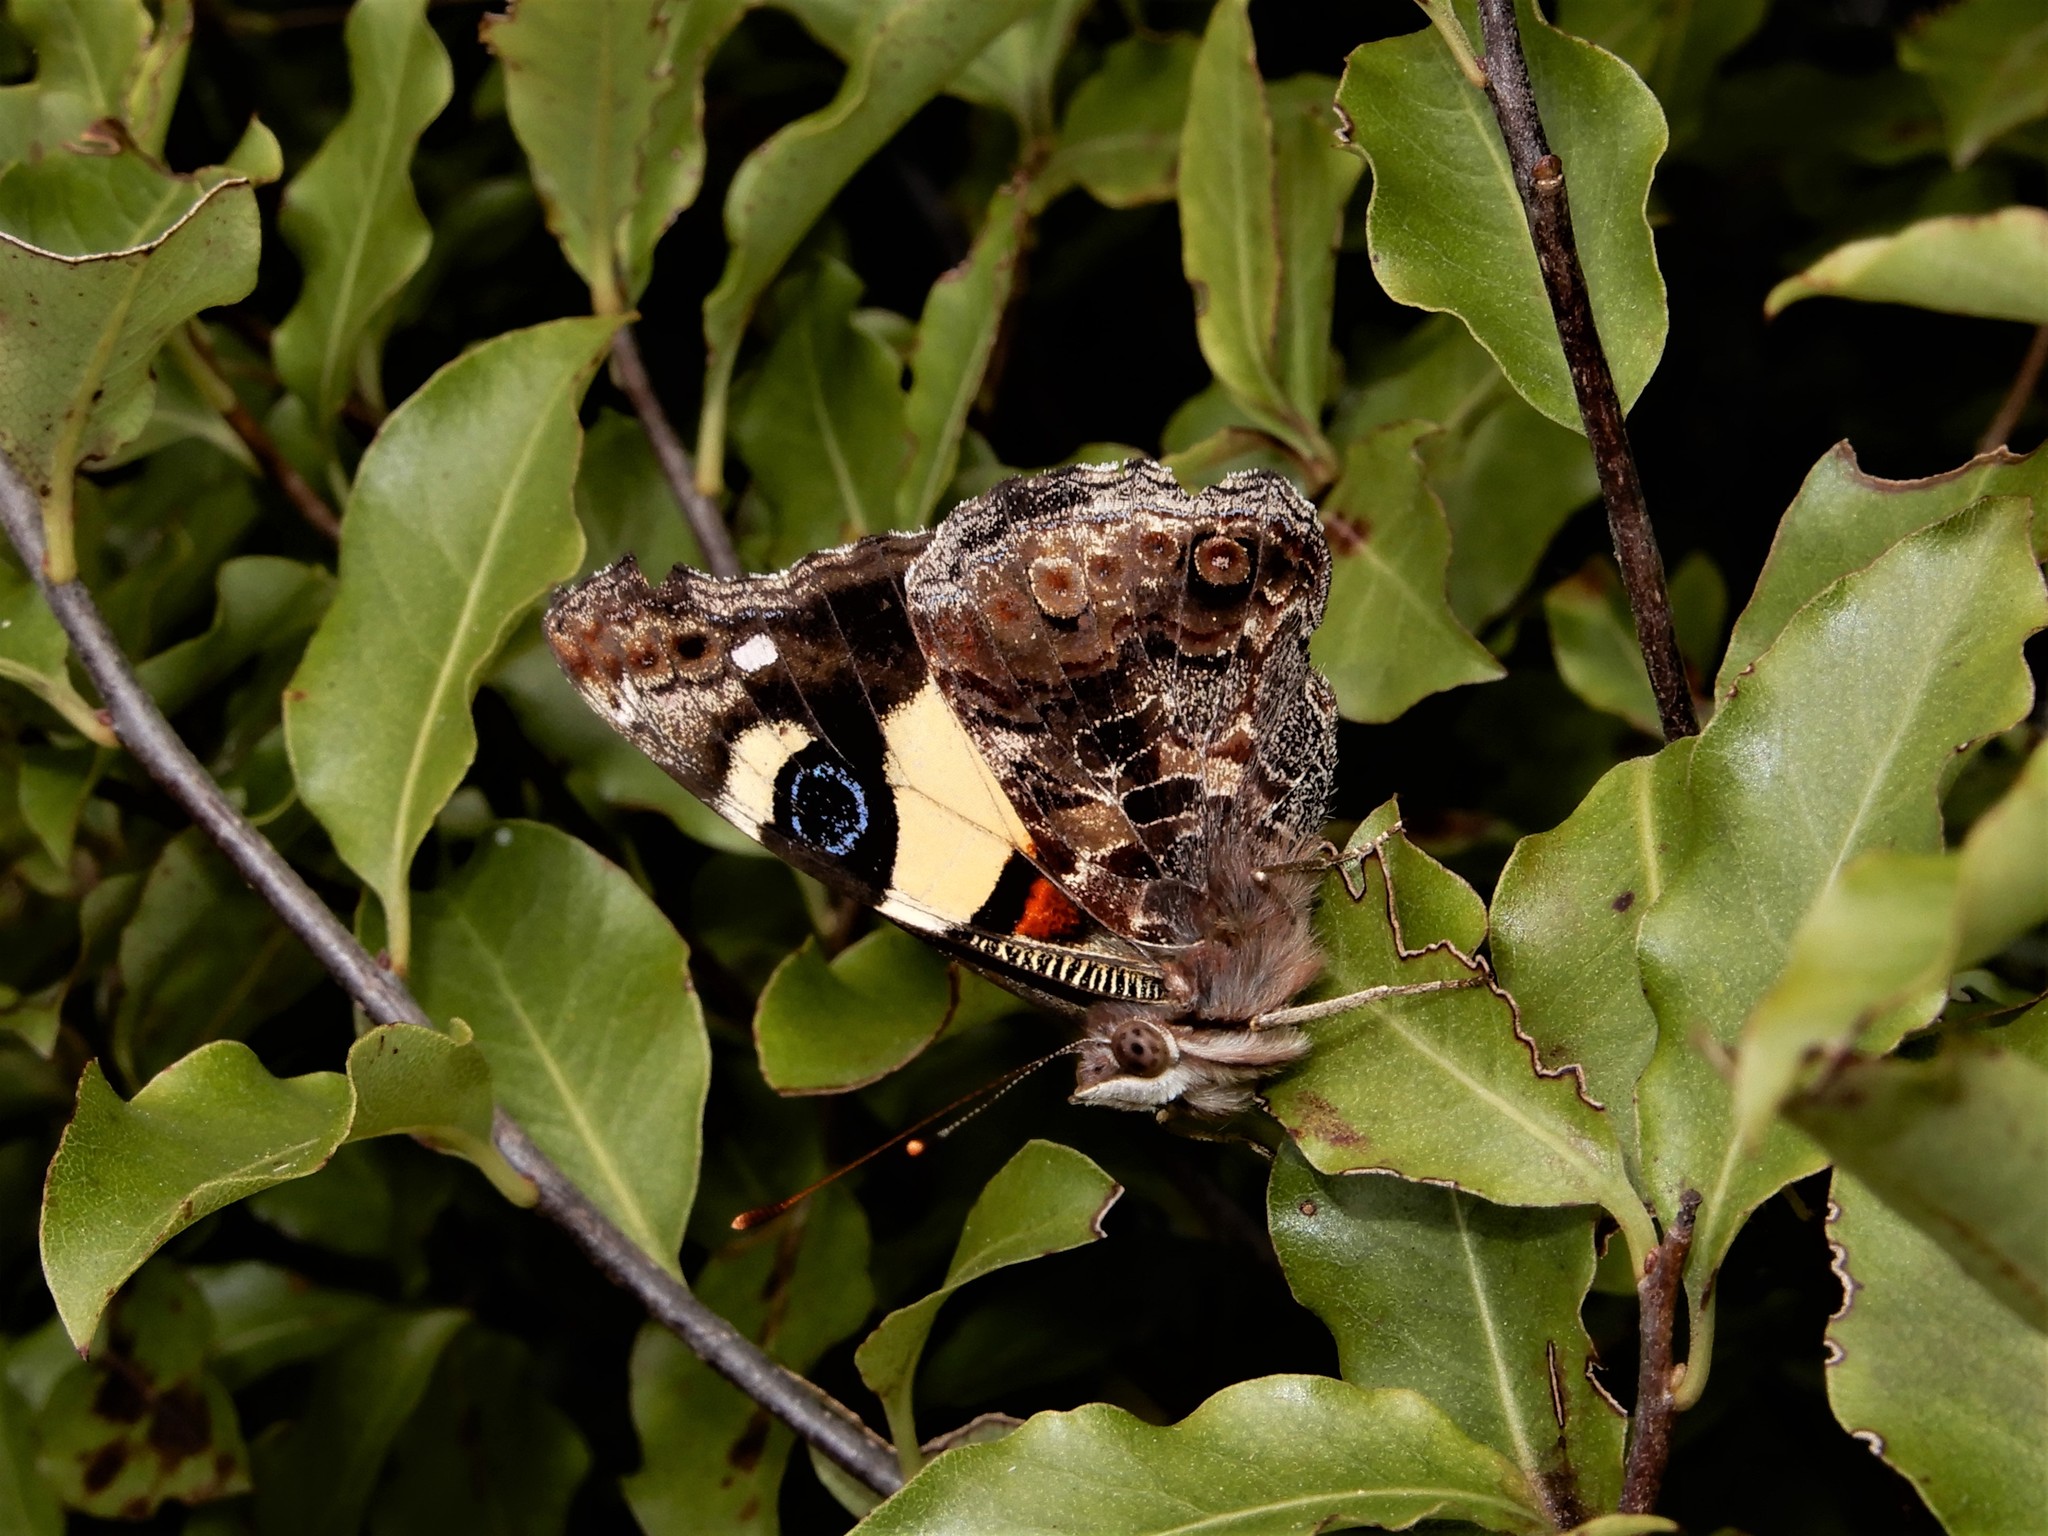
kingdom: Animalia
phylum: Arthropoda
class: Insecta
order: Lepidoptera
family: Nymphalidae
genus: Vanessa
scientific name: Vanessa itea
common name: Yellow admiral
